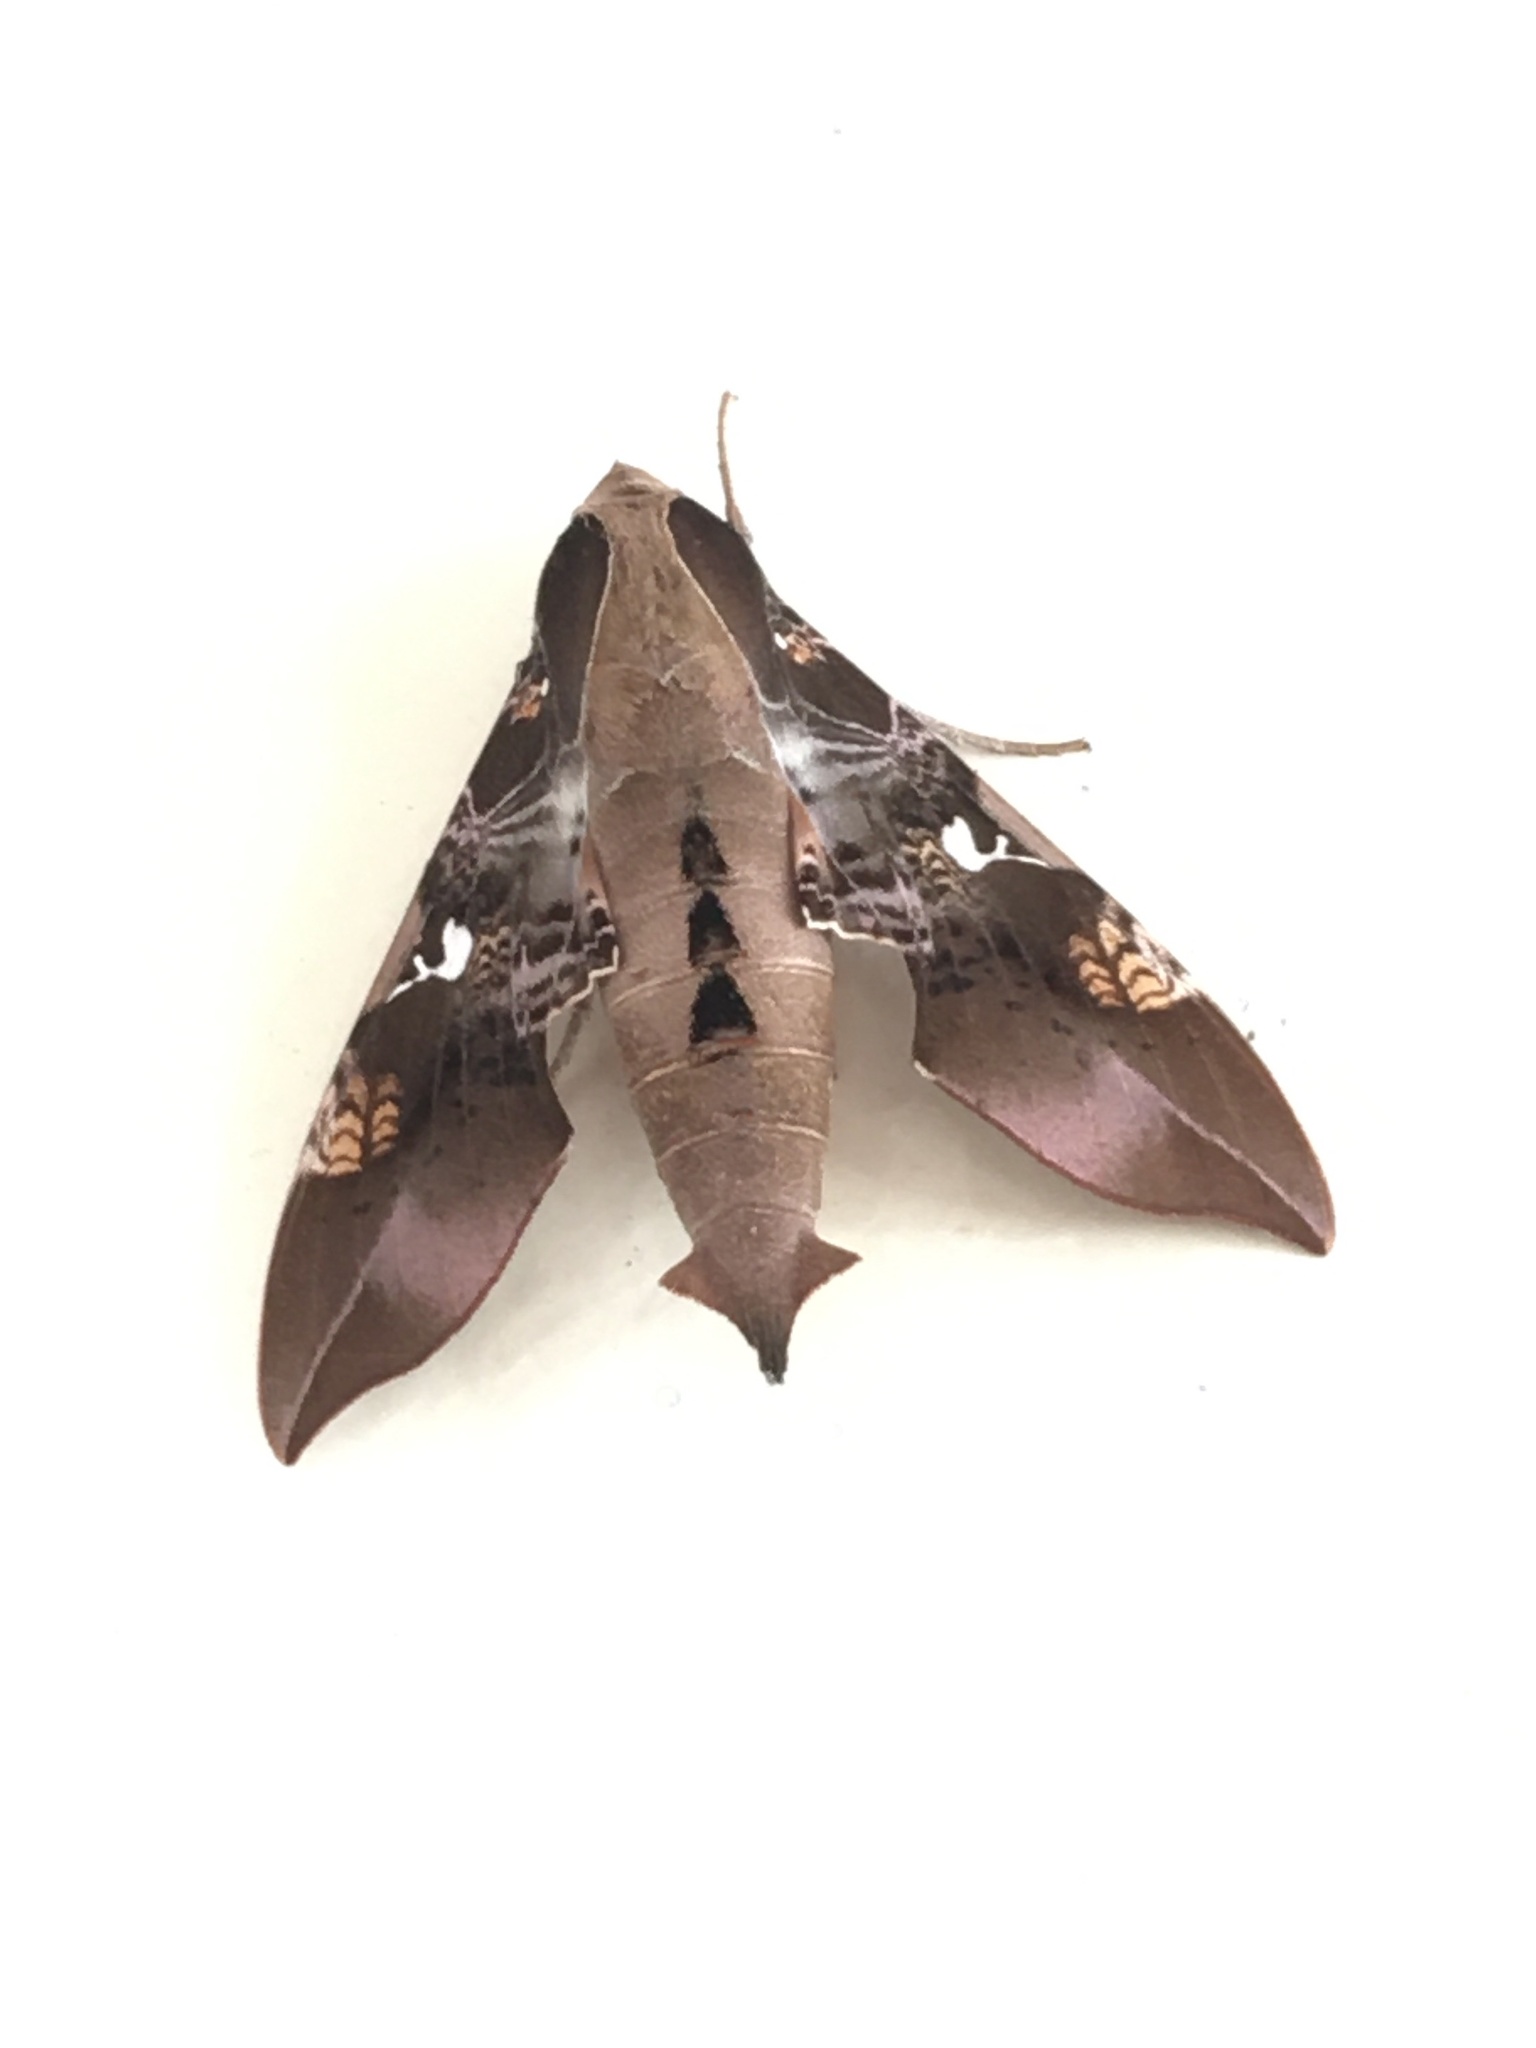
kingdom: Animalia
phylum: Arthropoda
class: Insecta
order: Lepidoptera
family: Sphingidae
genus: Callionima
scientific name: Callionima inuus
